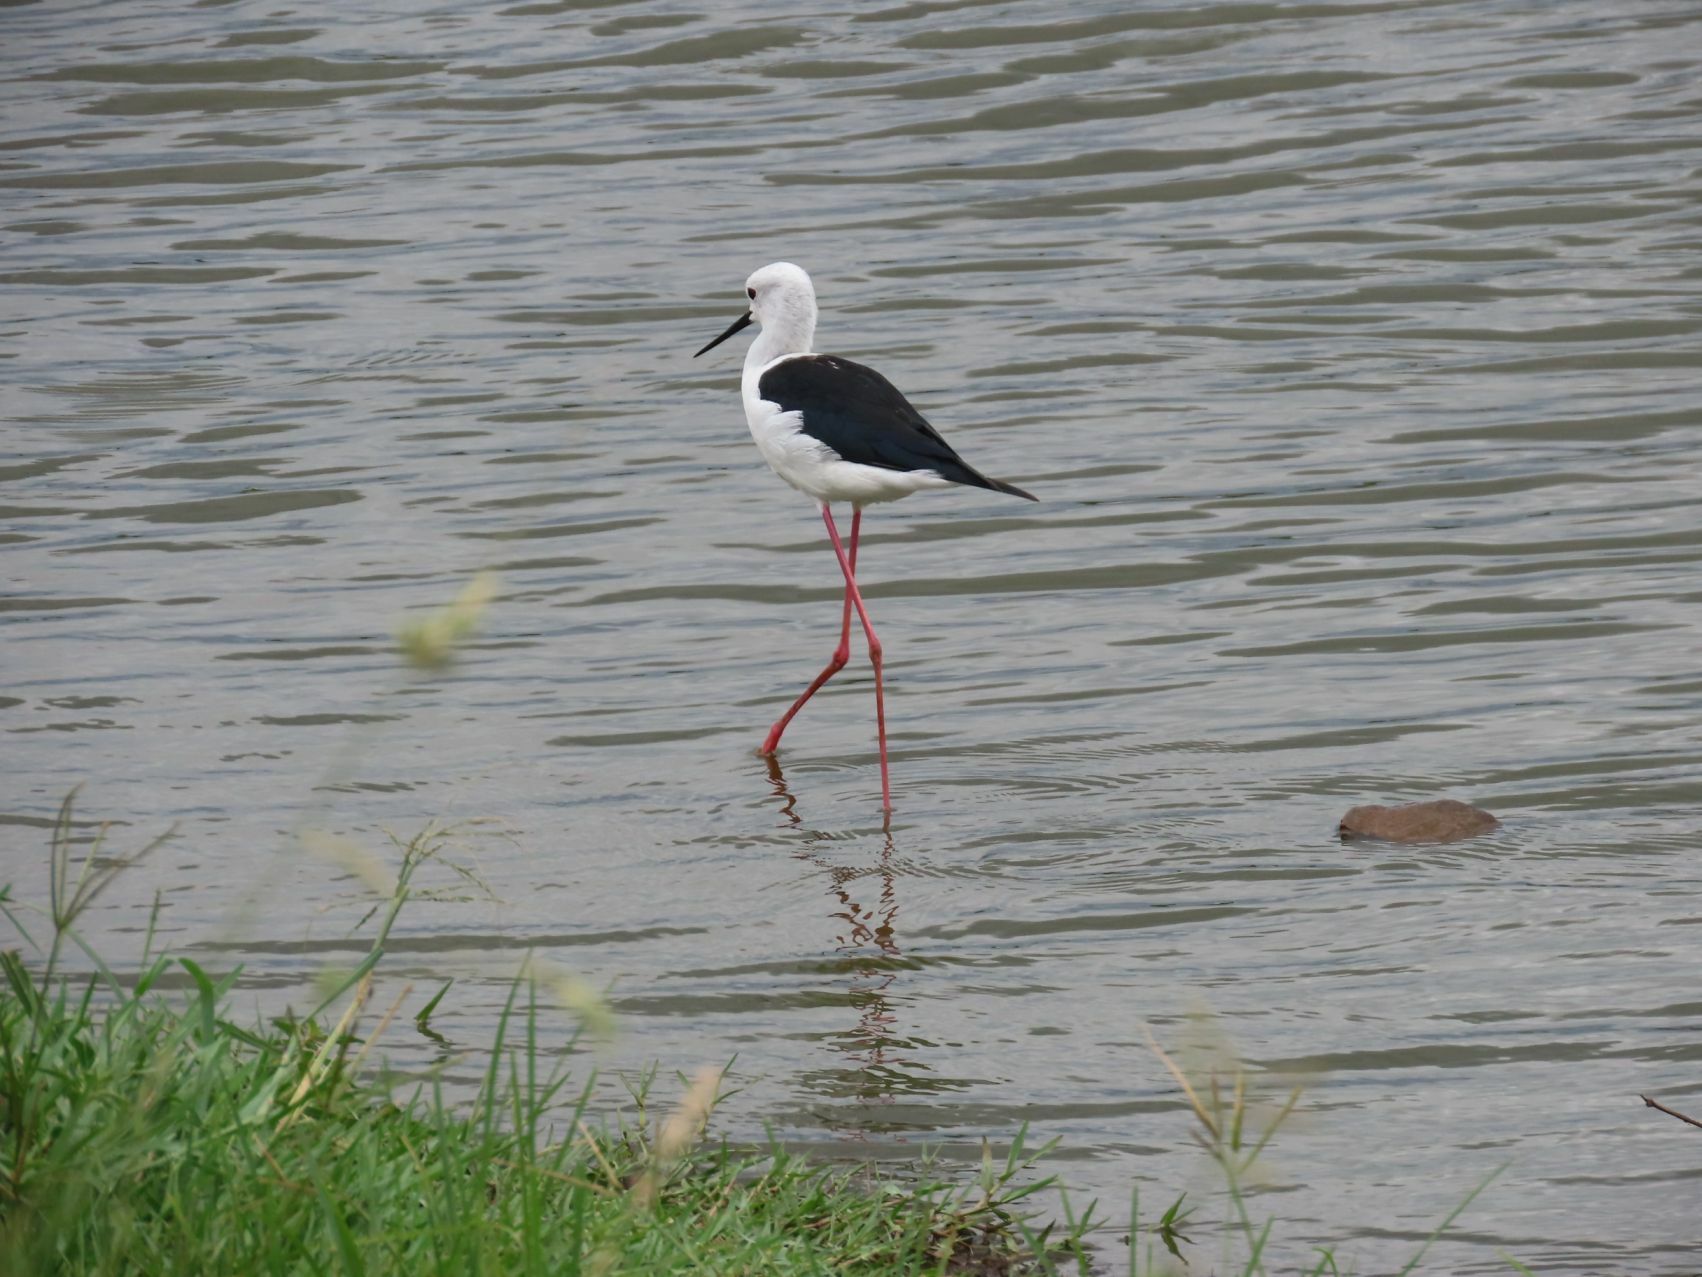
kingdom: Animalia
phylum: Chordata
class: Aves
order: Charadriiformes
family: Recurvirostridae
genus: Himantopus
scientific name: Himantopus himantopus
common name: Black-winged stilt
